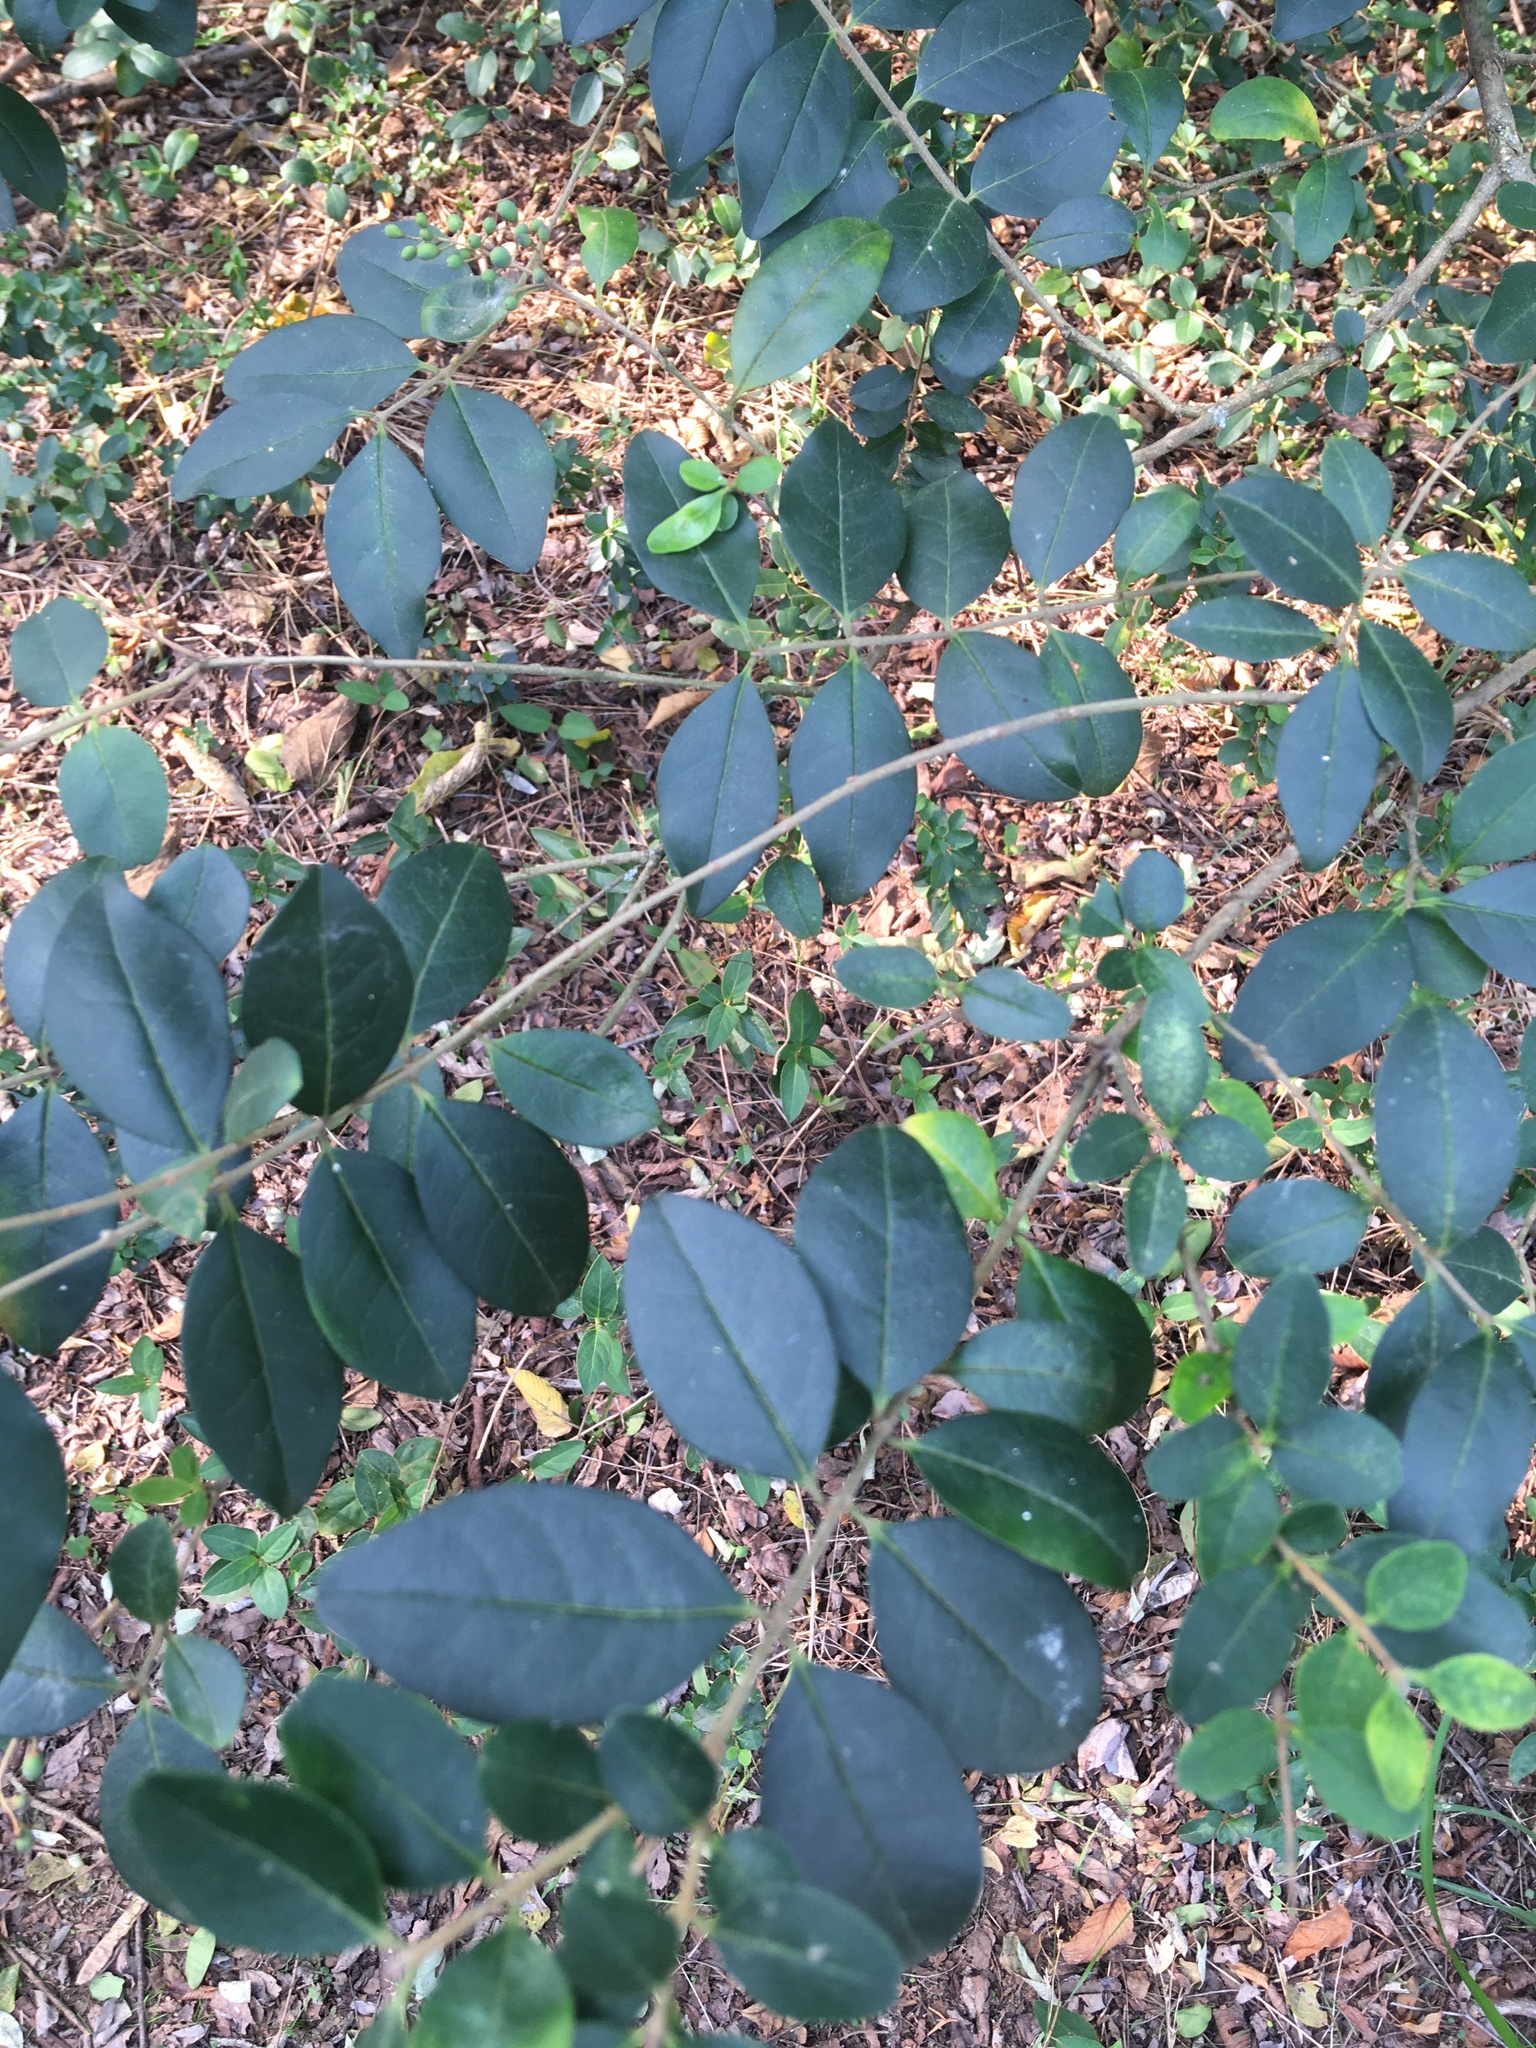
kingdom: Plantae
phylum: Tracheophyta
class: Magnoliopsida
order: Lamiales
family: Oleaceae
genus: Ligustrum
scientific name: Ligustrum sinense
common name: Chinese privet
